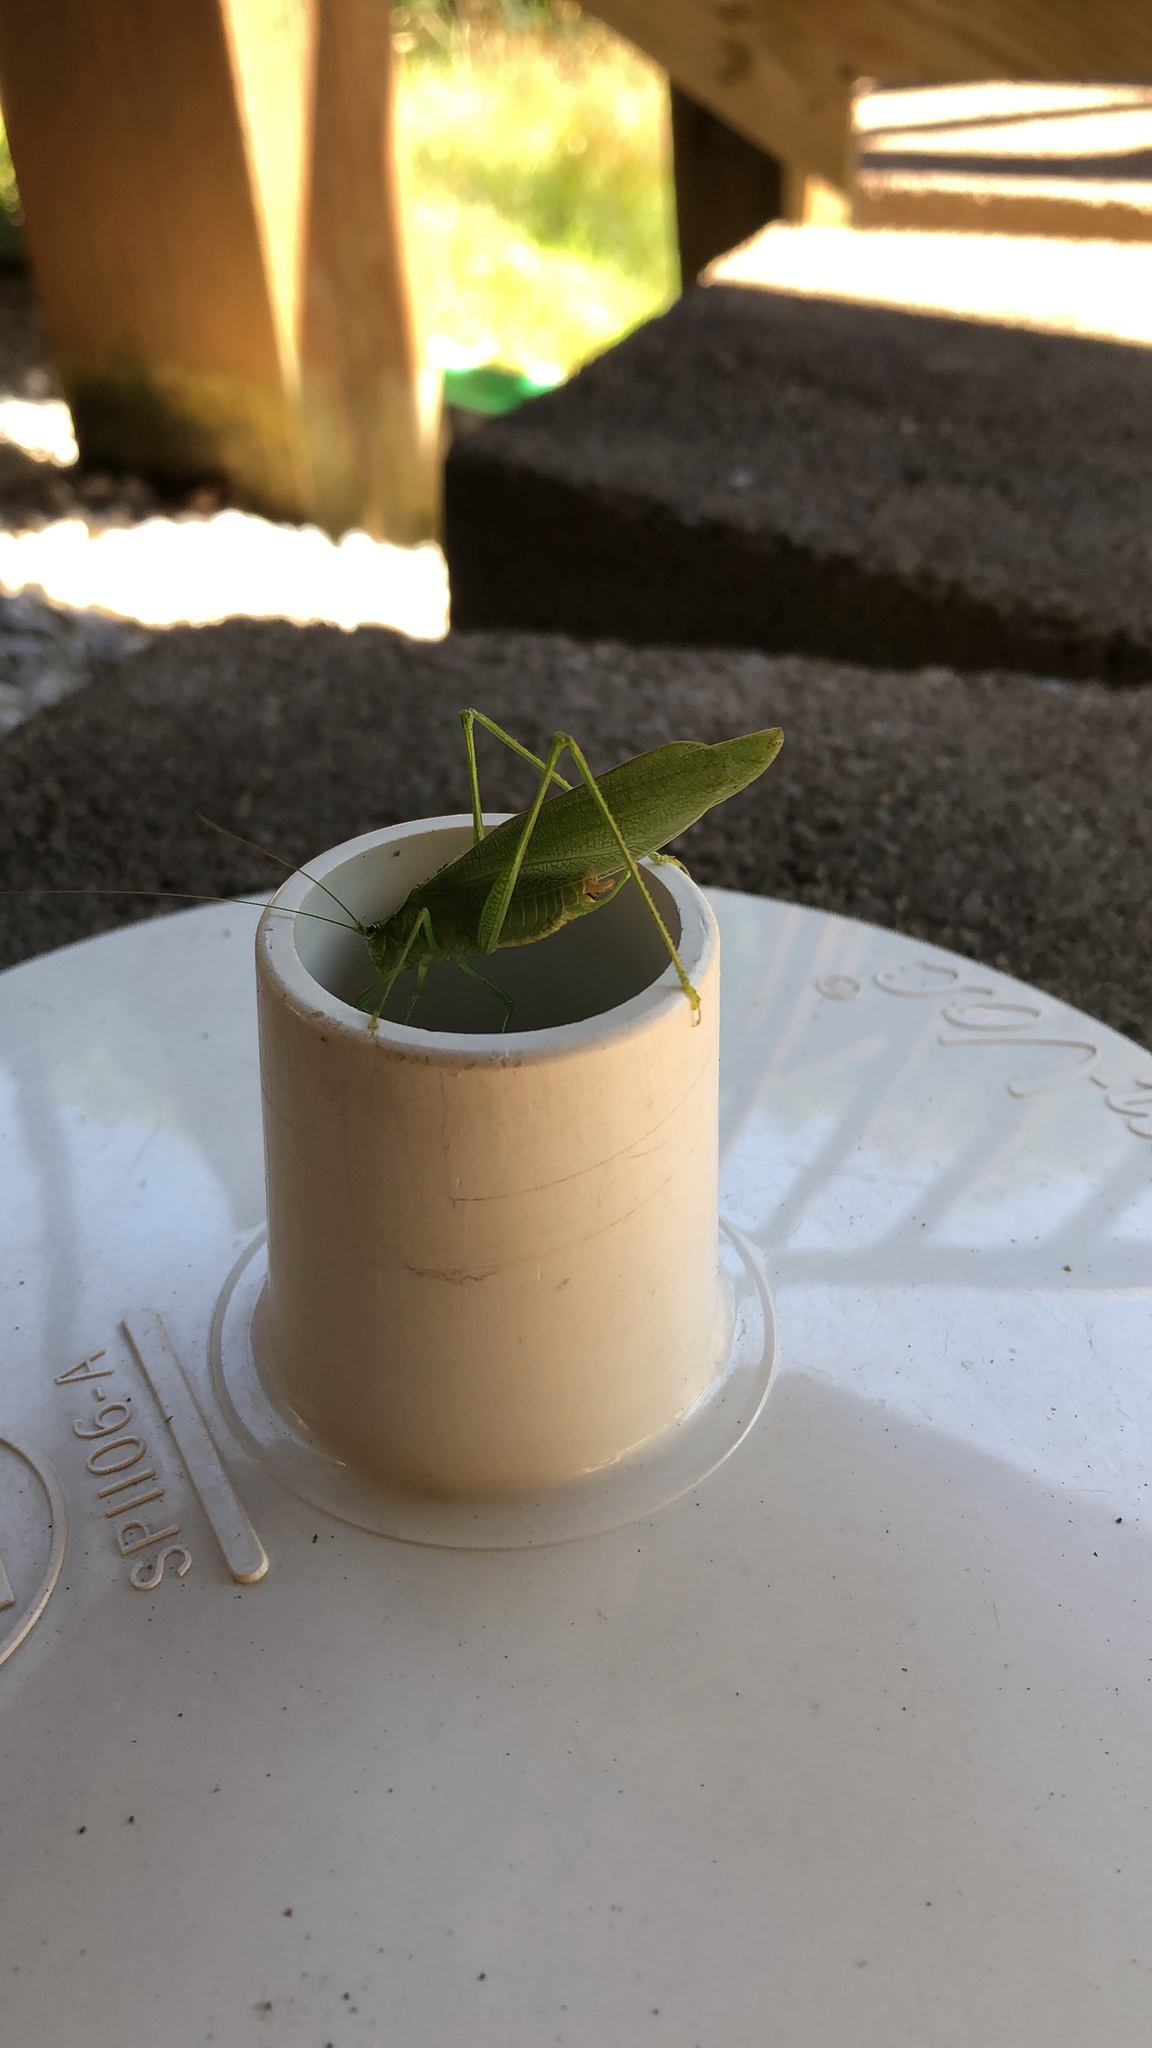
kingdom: Animalia
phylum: Arthropoda
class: Insecta
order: Orthoptera
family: Tettigoniidae
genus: Scudderia
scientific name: Scudderia septentrionalis
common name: Northern bush-katydid
